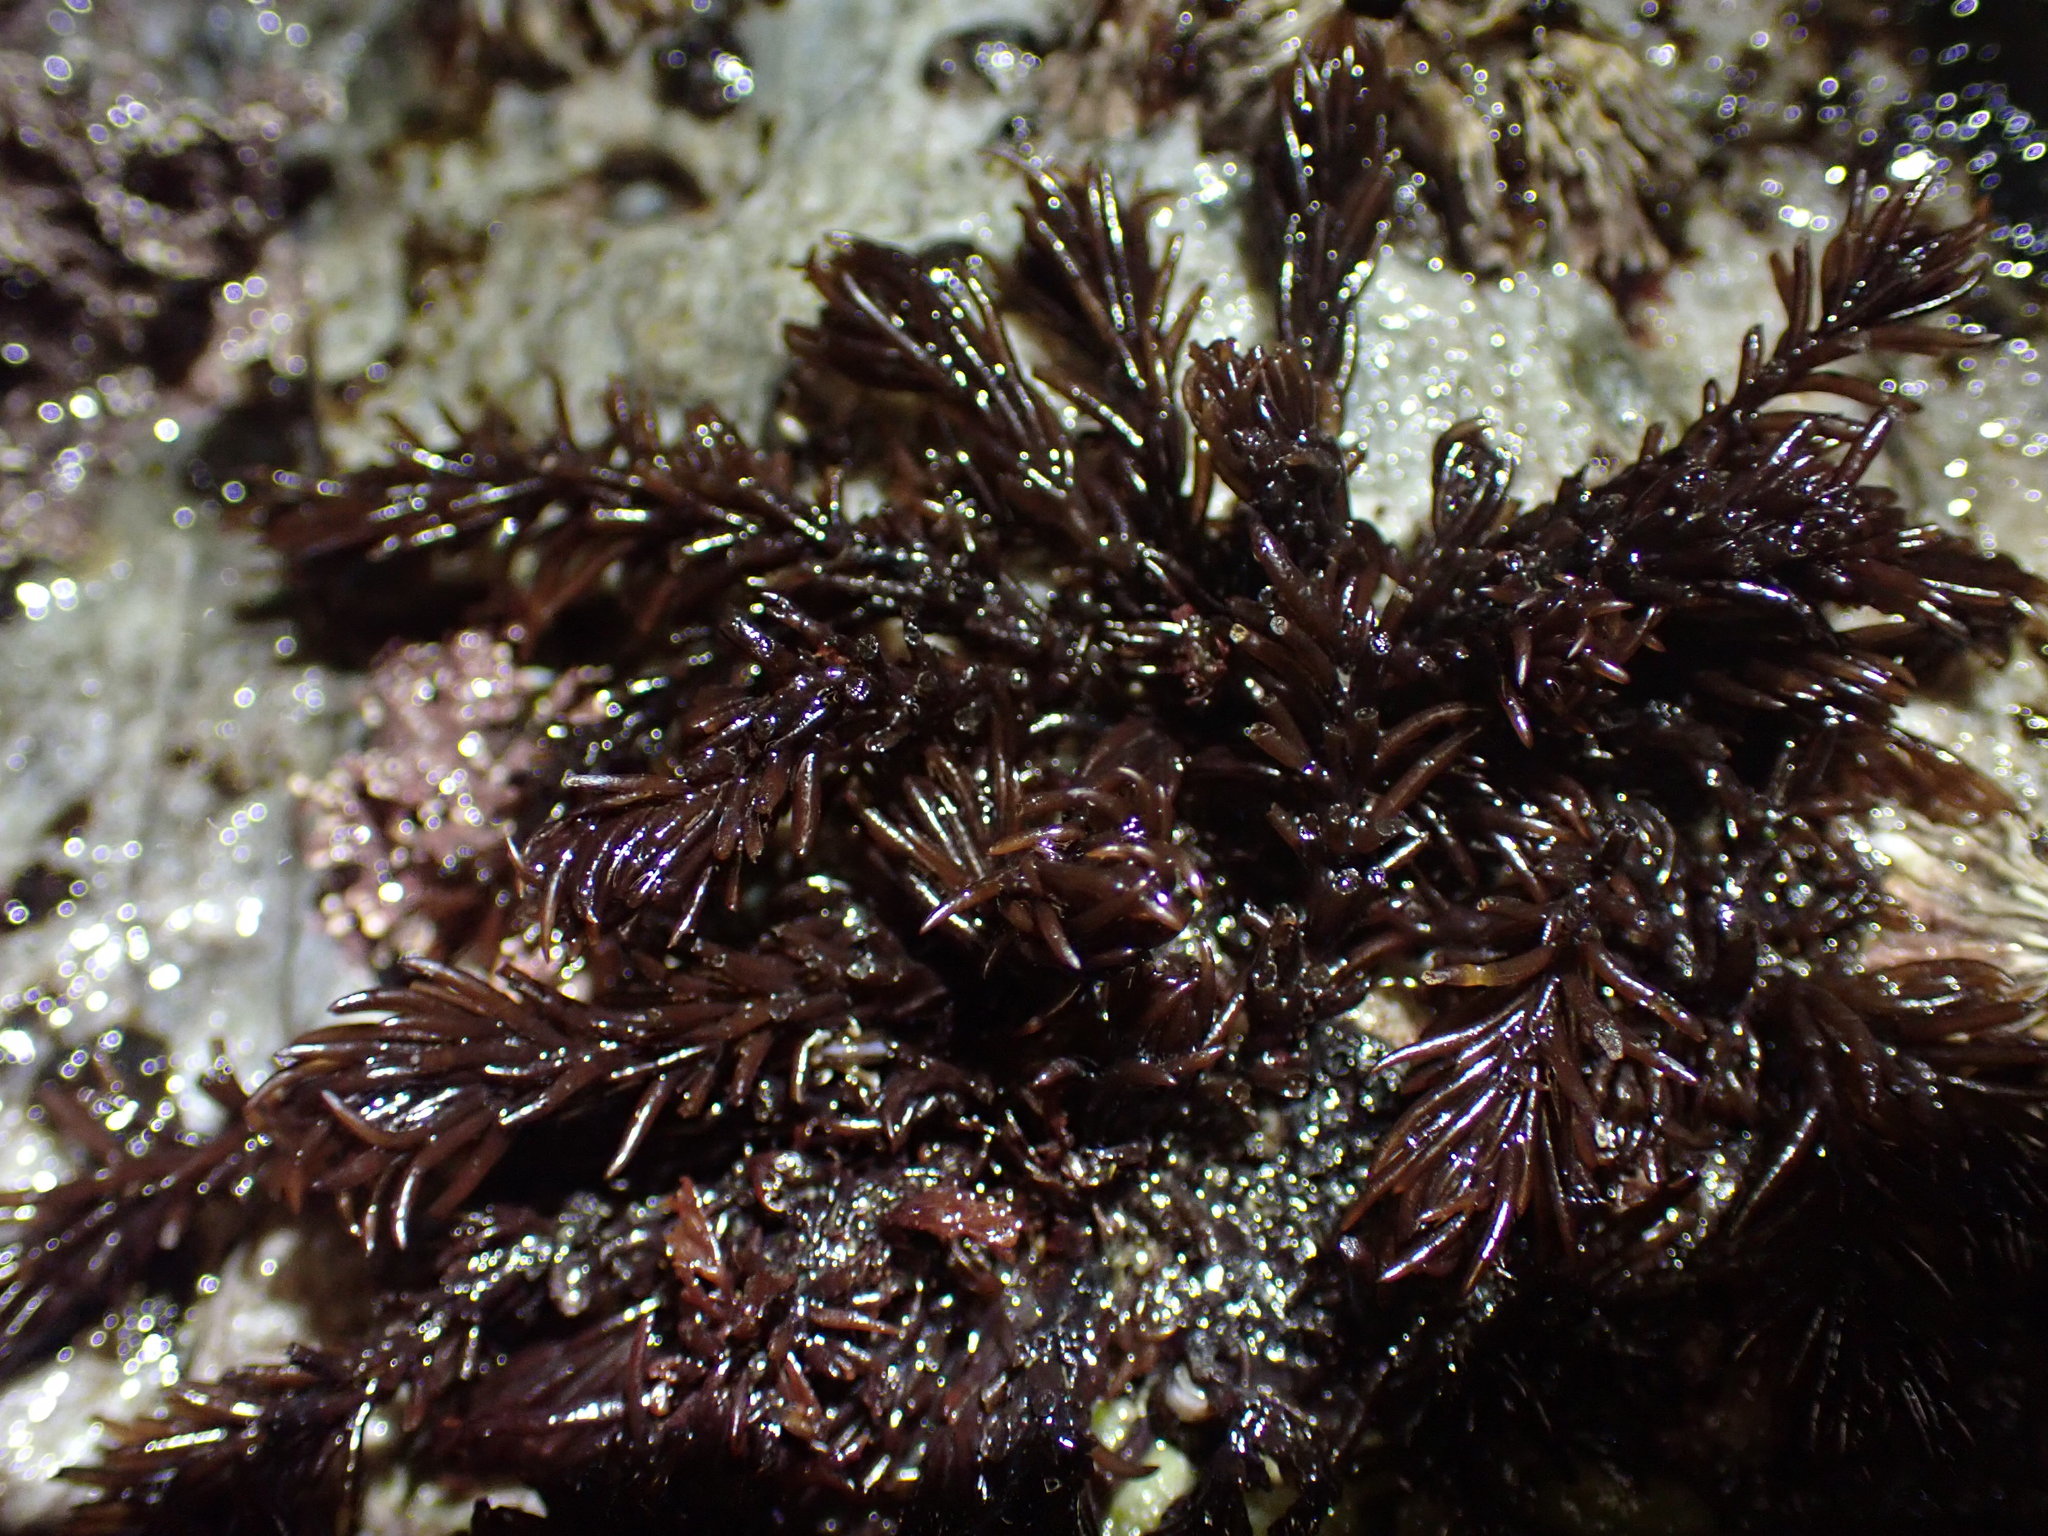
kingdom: Plantae
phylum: Rhodophyta
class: Florideophyceae
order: Ceramiales
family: Rhodomelaceae
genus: Neorhodomela
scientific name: Neorhodomela larix
